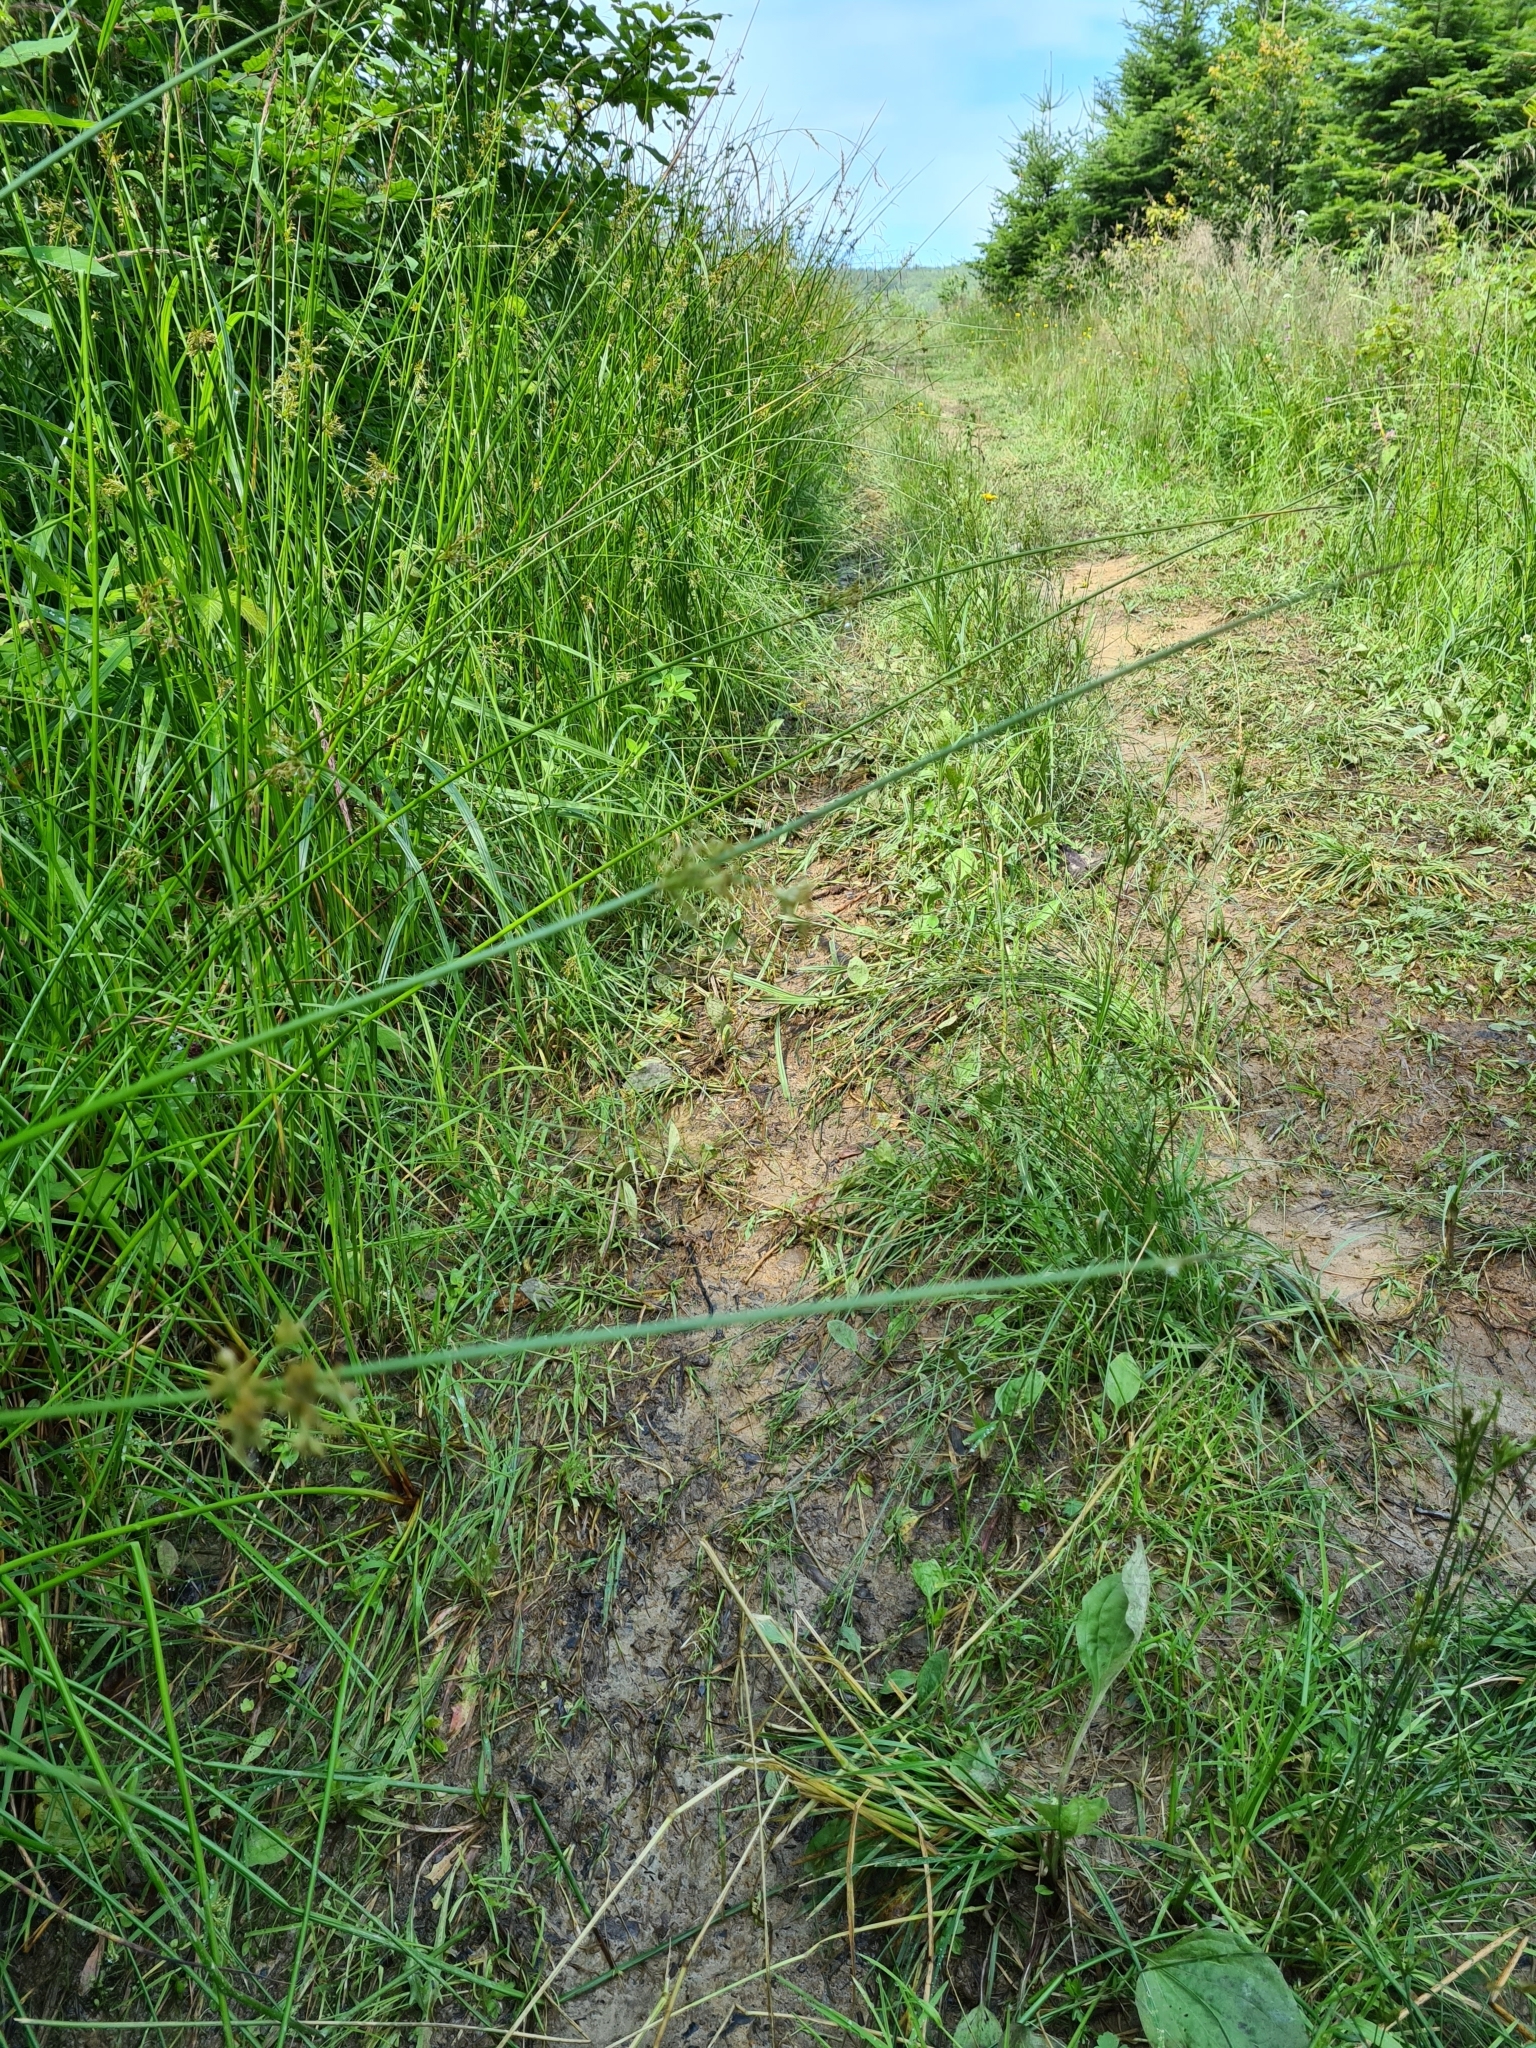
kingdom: Plantae
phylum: Tracheophyta
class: Liliopsida
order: Poales
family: Juncaceae
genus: Juncus
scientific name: Juncus effusus
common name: Soft rush
